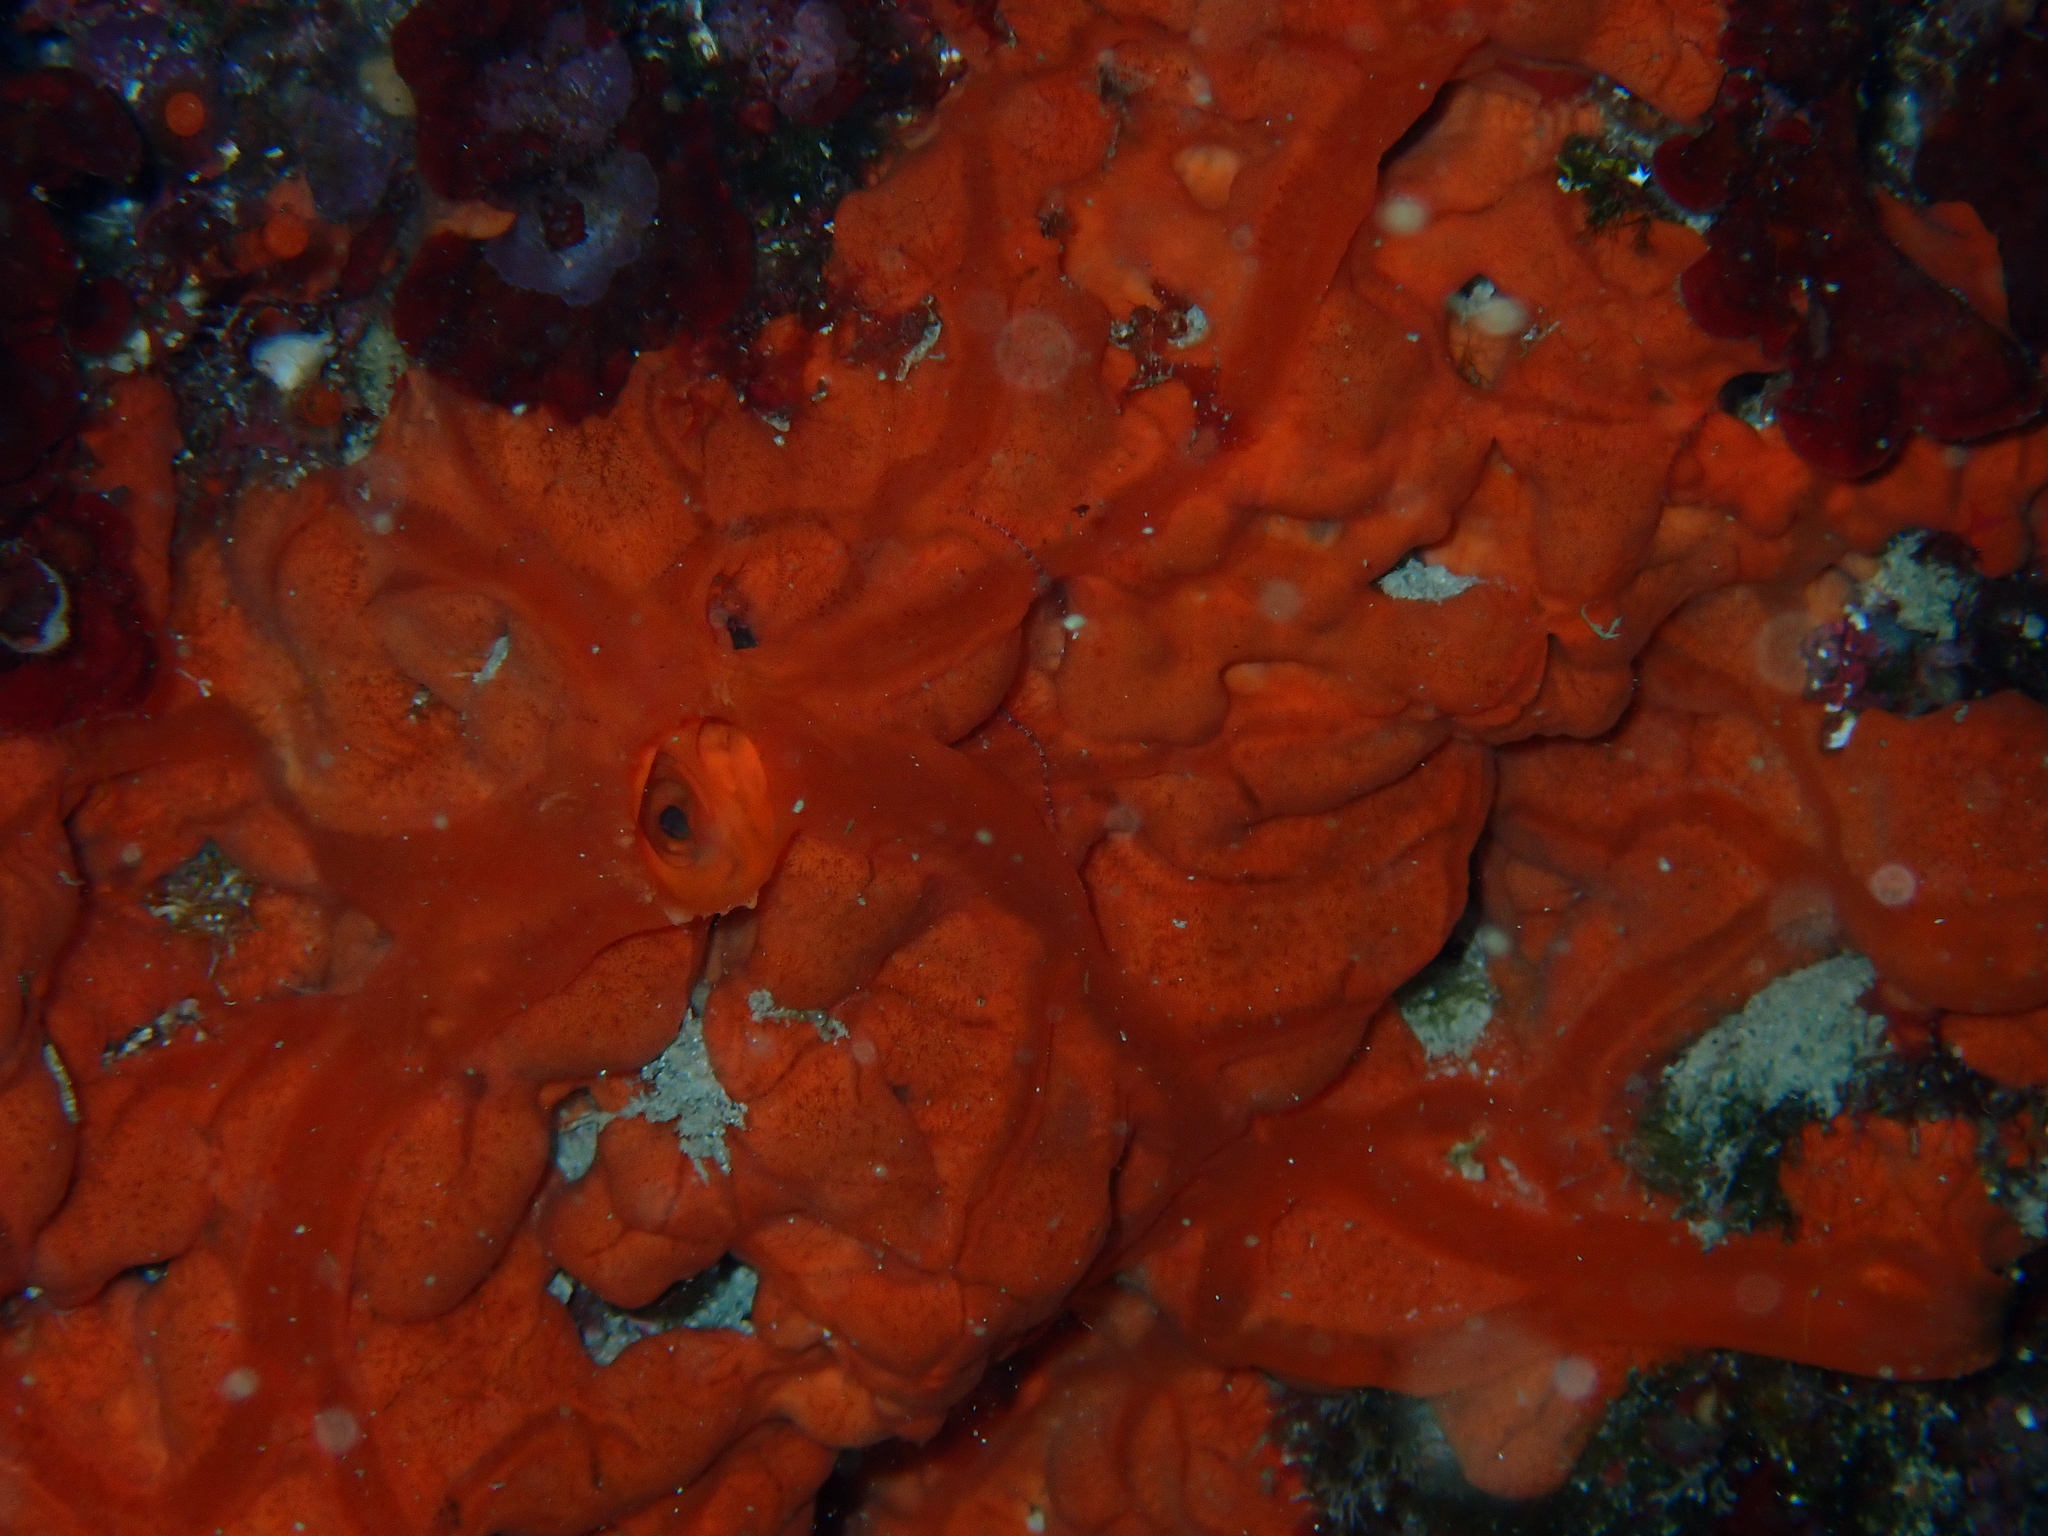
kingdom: Animalia
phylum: Porifera
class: Demospongiae
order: Clionaida
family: Spirastrellidae
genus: Spirastrella
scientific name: Spirastrella cunctatrix
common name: Encrusting orange sponge
